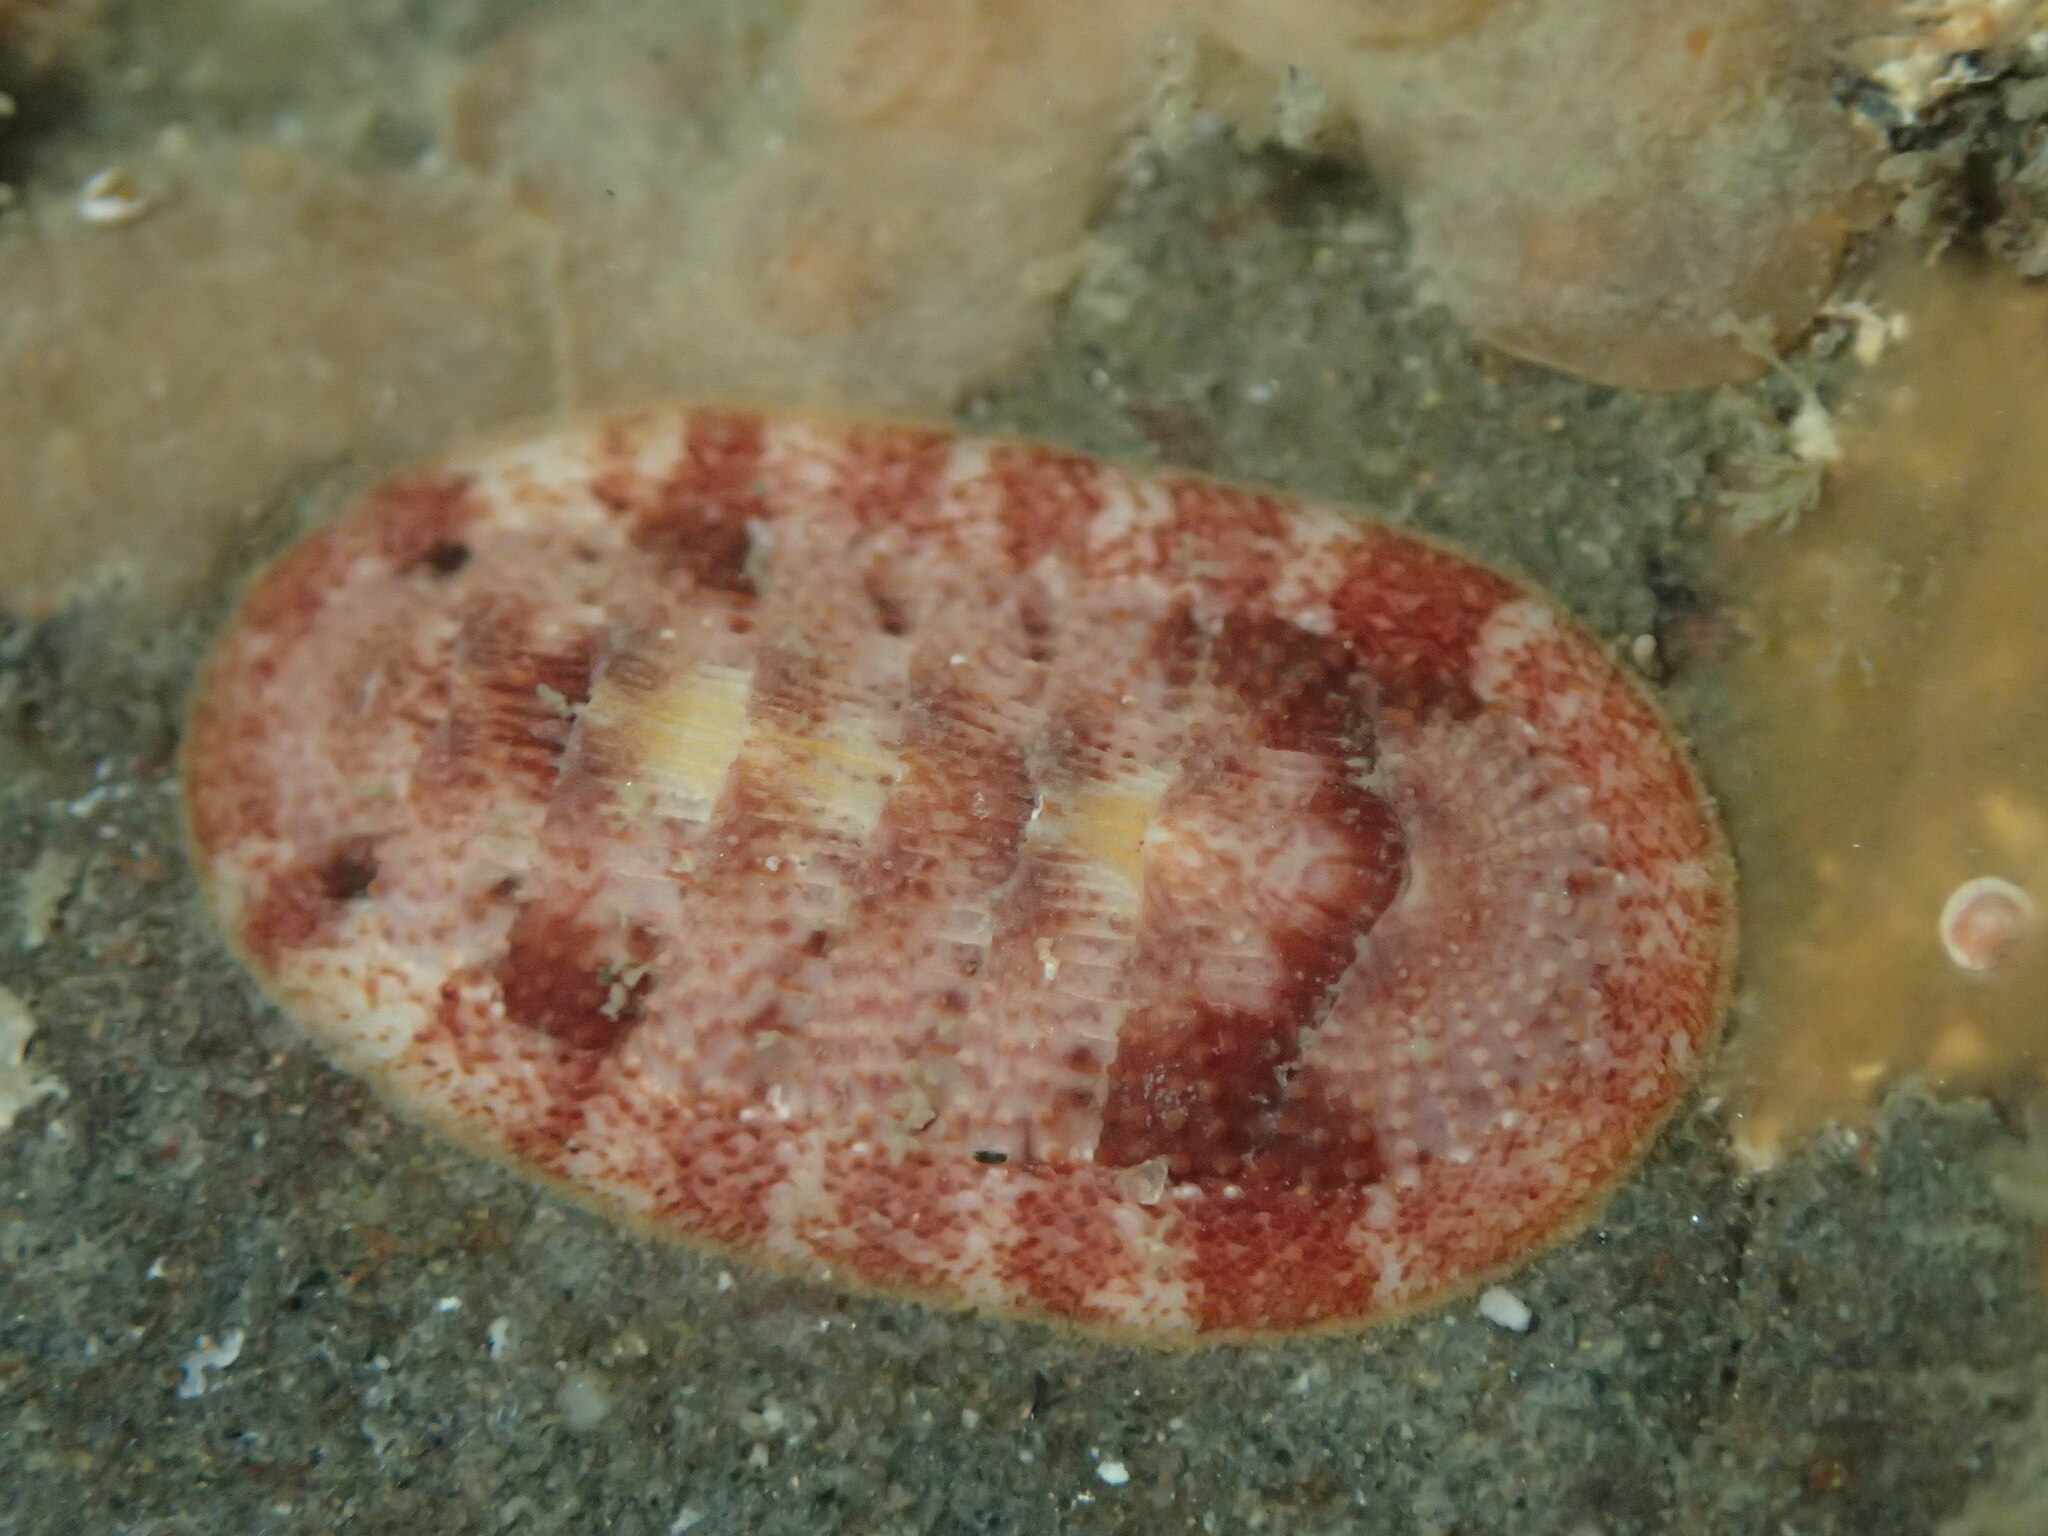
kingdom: Animalia
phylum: Mollusca
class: Polyplacophora
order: Chitonida
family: Ischnochitonidae
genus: Lepidozona
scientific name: Lepidozona mertensii
